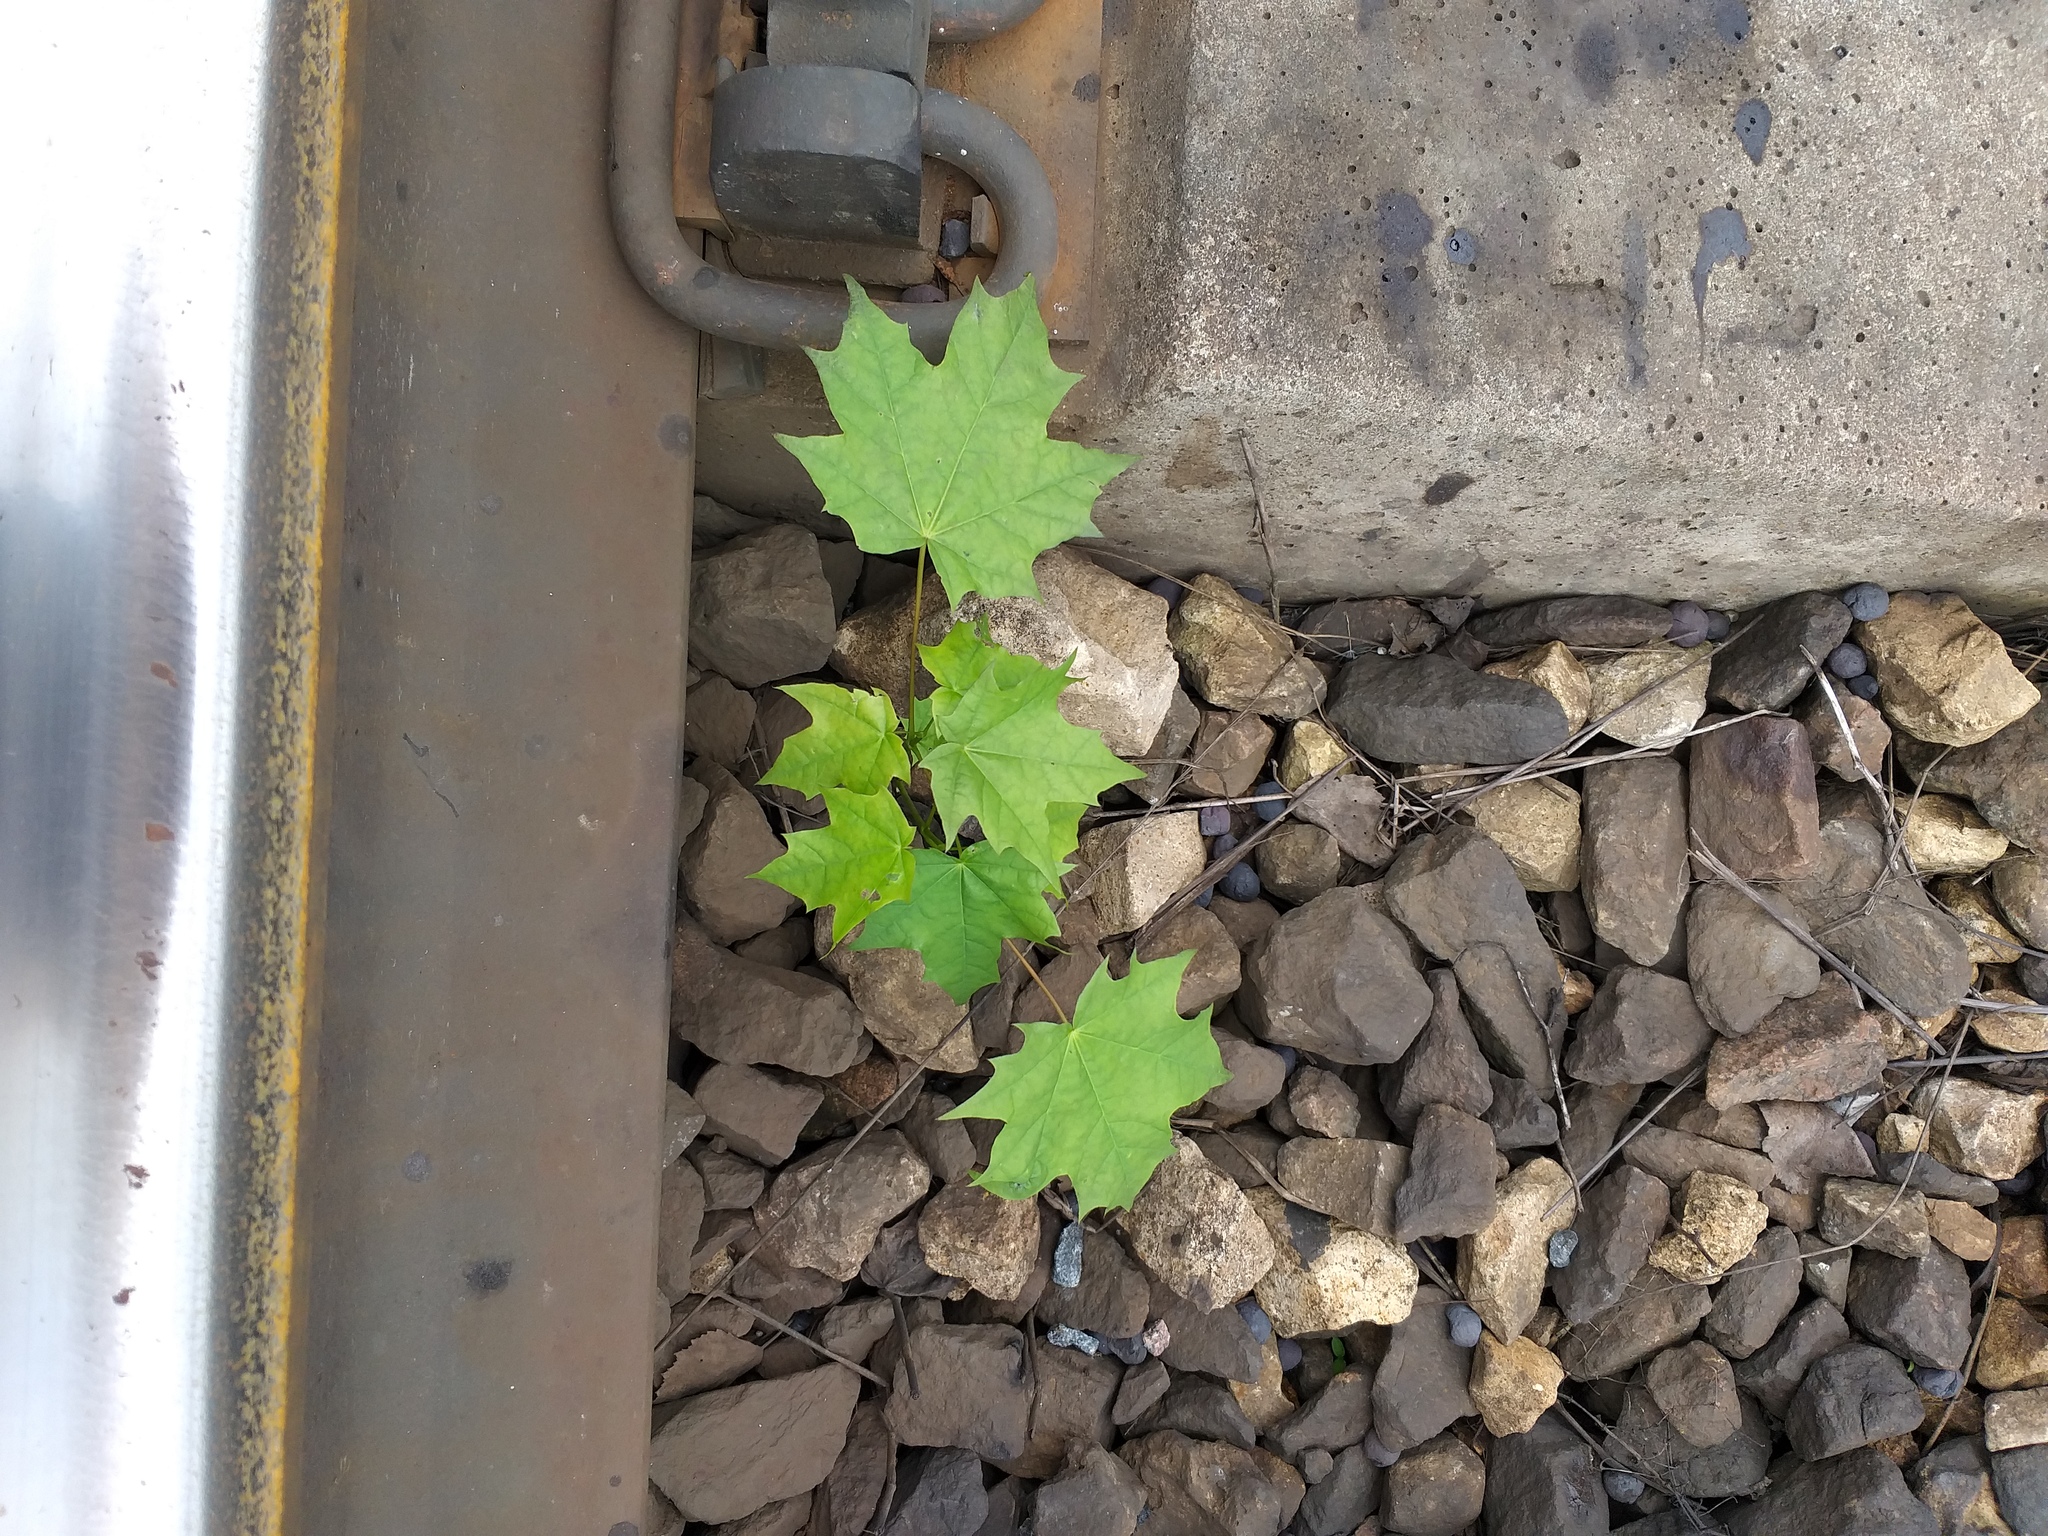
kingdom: Plantae
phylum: Tracheophyta
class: Magnoliopsida
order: Sapindales
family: Sapindaceae
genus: Acer
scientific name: Acer platanoides
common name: Norway maple
